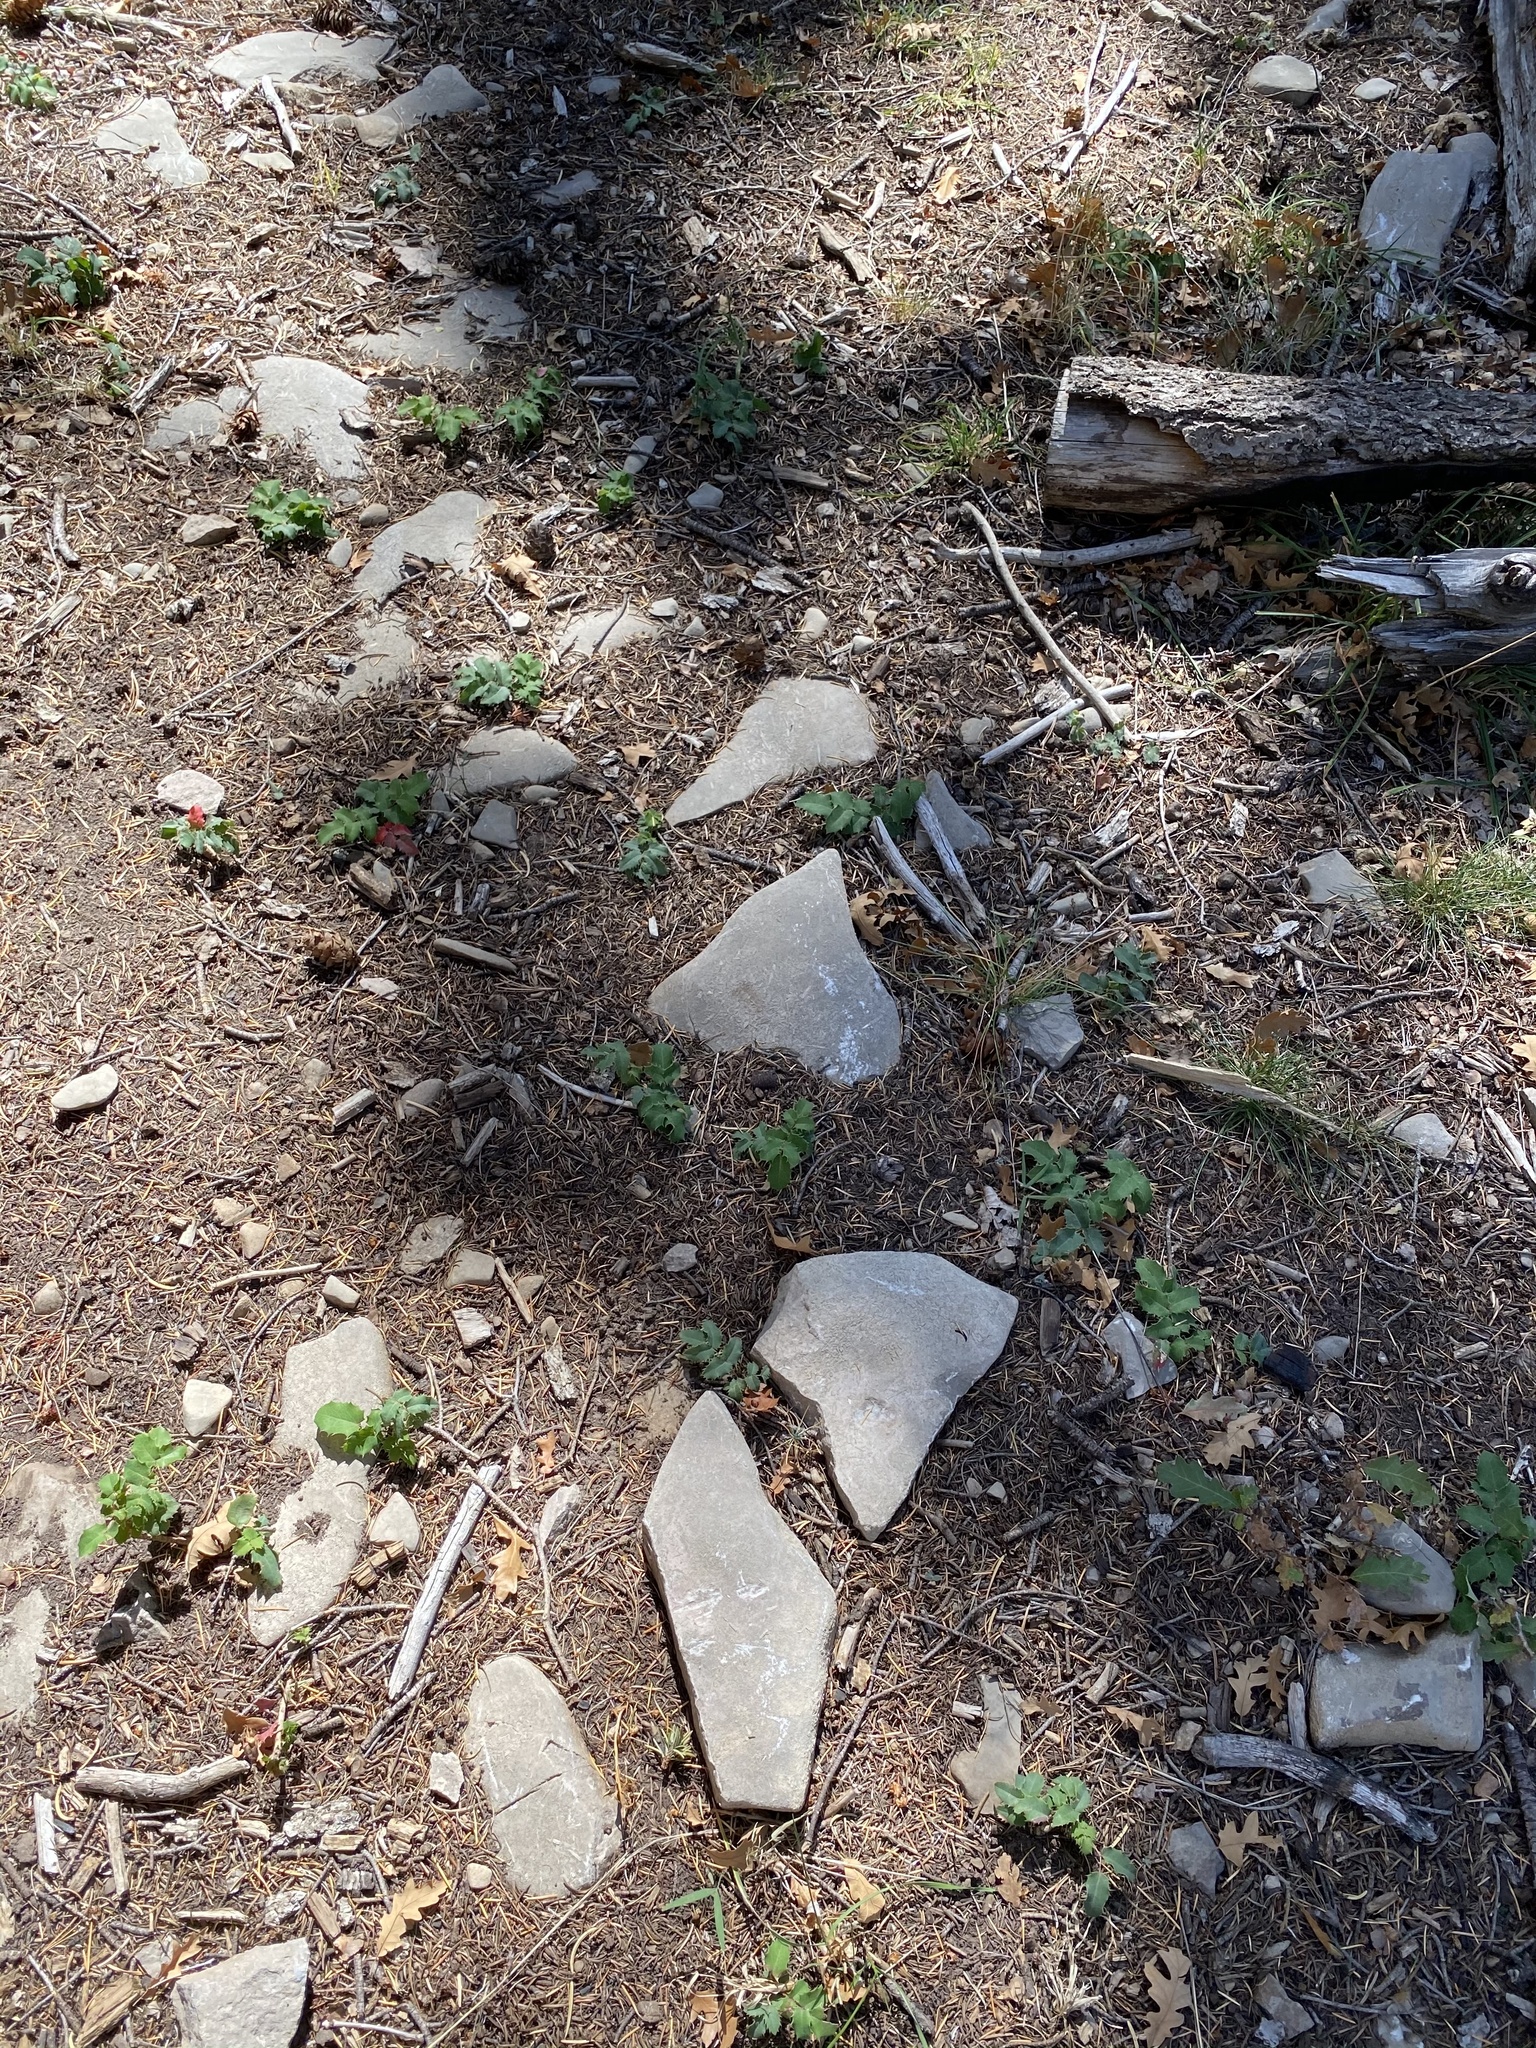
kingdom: Plantae
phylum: Tracheophyta
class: Magnoliopsida
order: Ranunculales
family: Berberidaceae
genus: Mahonia
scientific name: Mahonia repens
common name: Creeping oregon-grape
